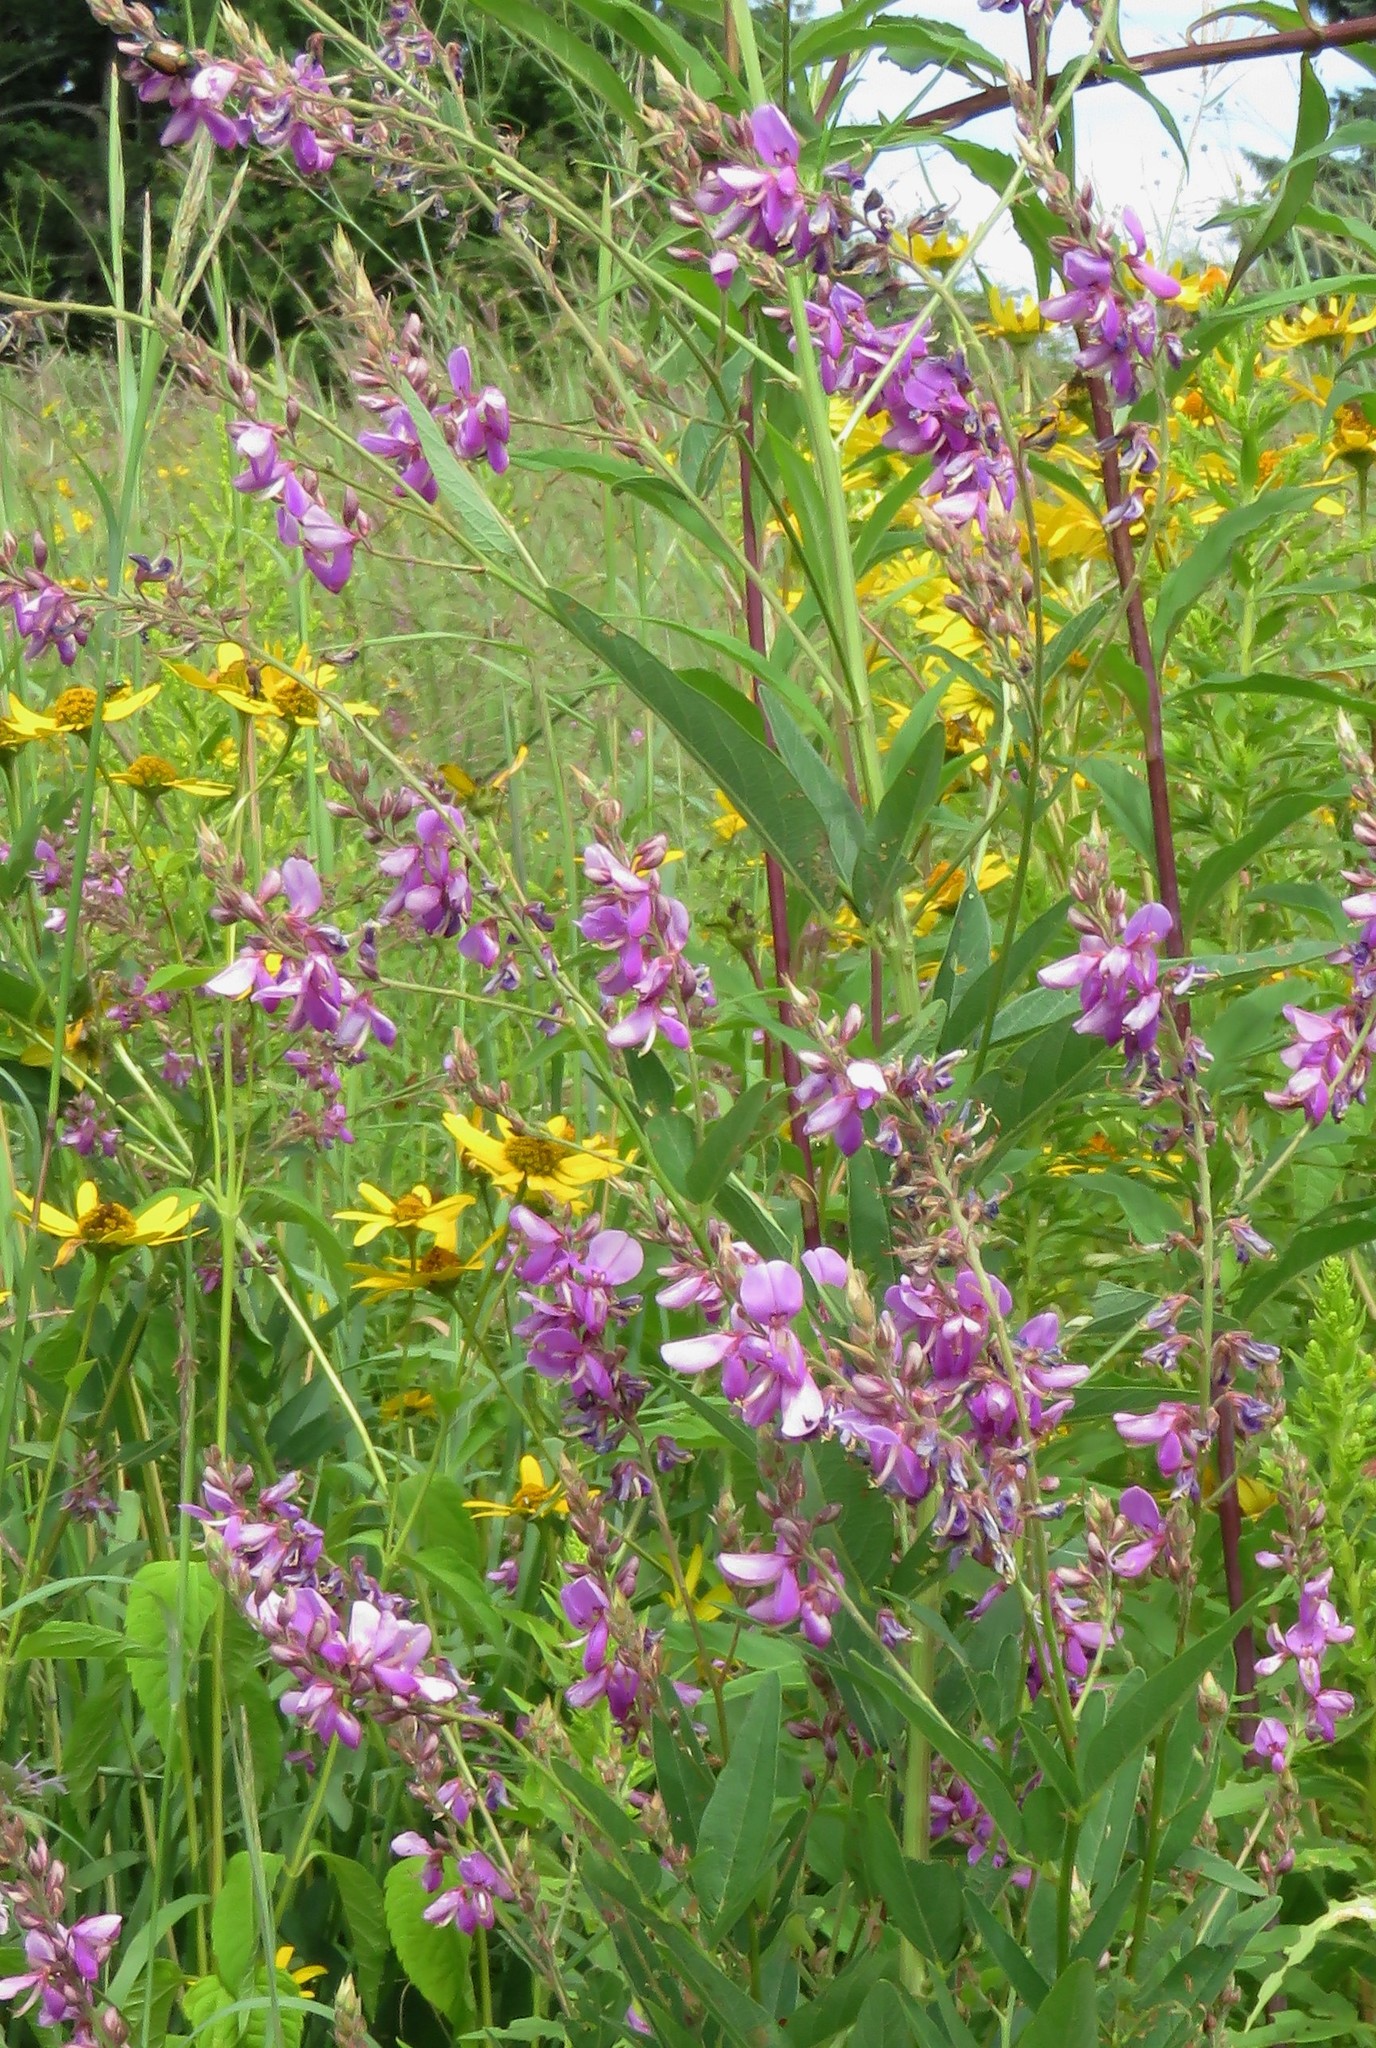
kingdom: Plantae
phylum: Tracheophyta
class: Magnoliopsida
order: Fabales
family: Fabaceae
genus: Desmodium
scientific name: Desmodium canadense
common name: Canada tick-trefoil
